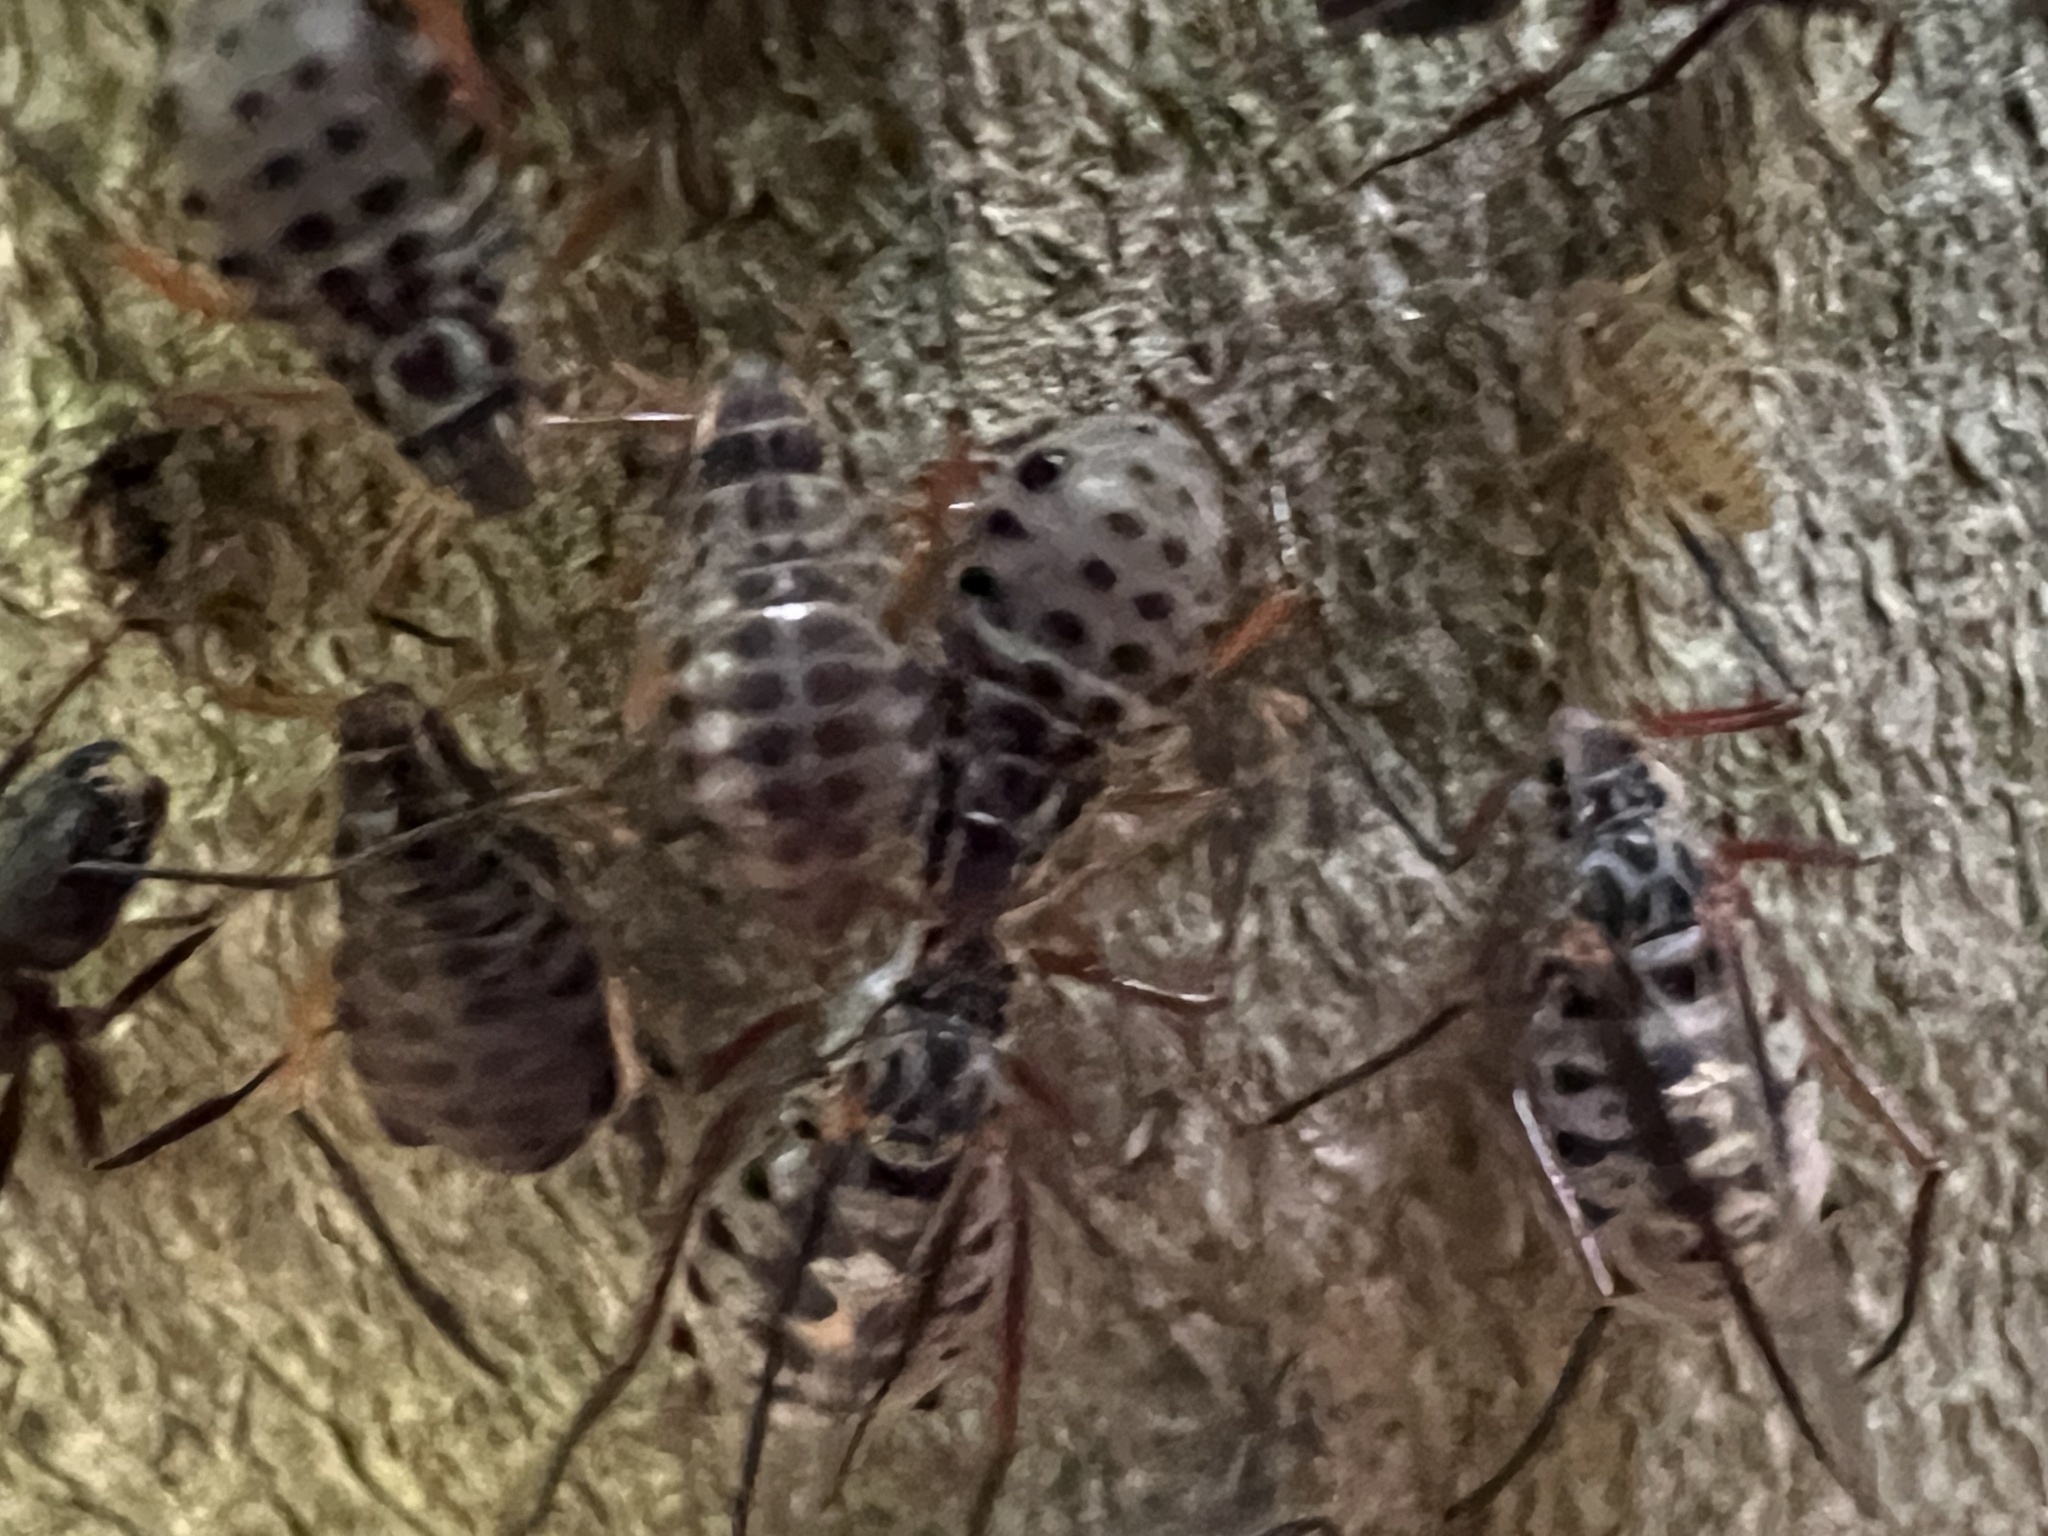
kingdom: Animalia
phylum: Arthropoda
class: Insecta
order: Hemiptera
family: Aphididae
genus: Longistigma
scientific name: Longistigma caryae
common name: Giant bark aphid
